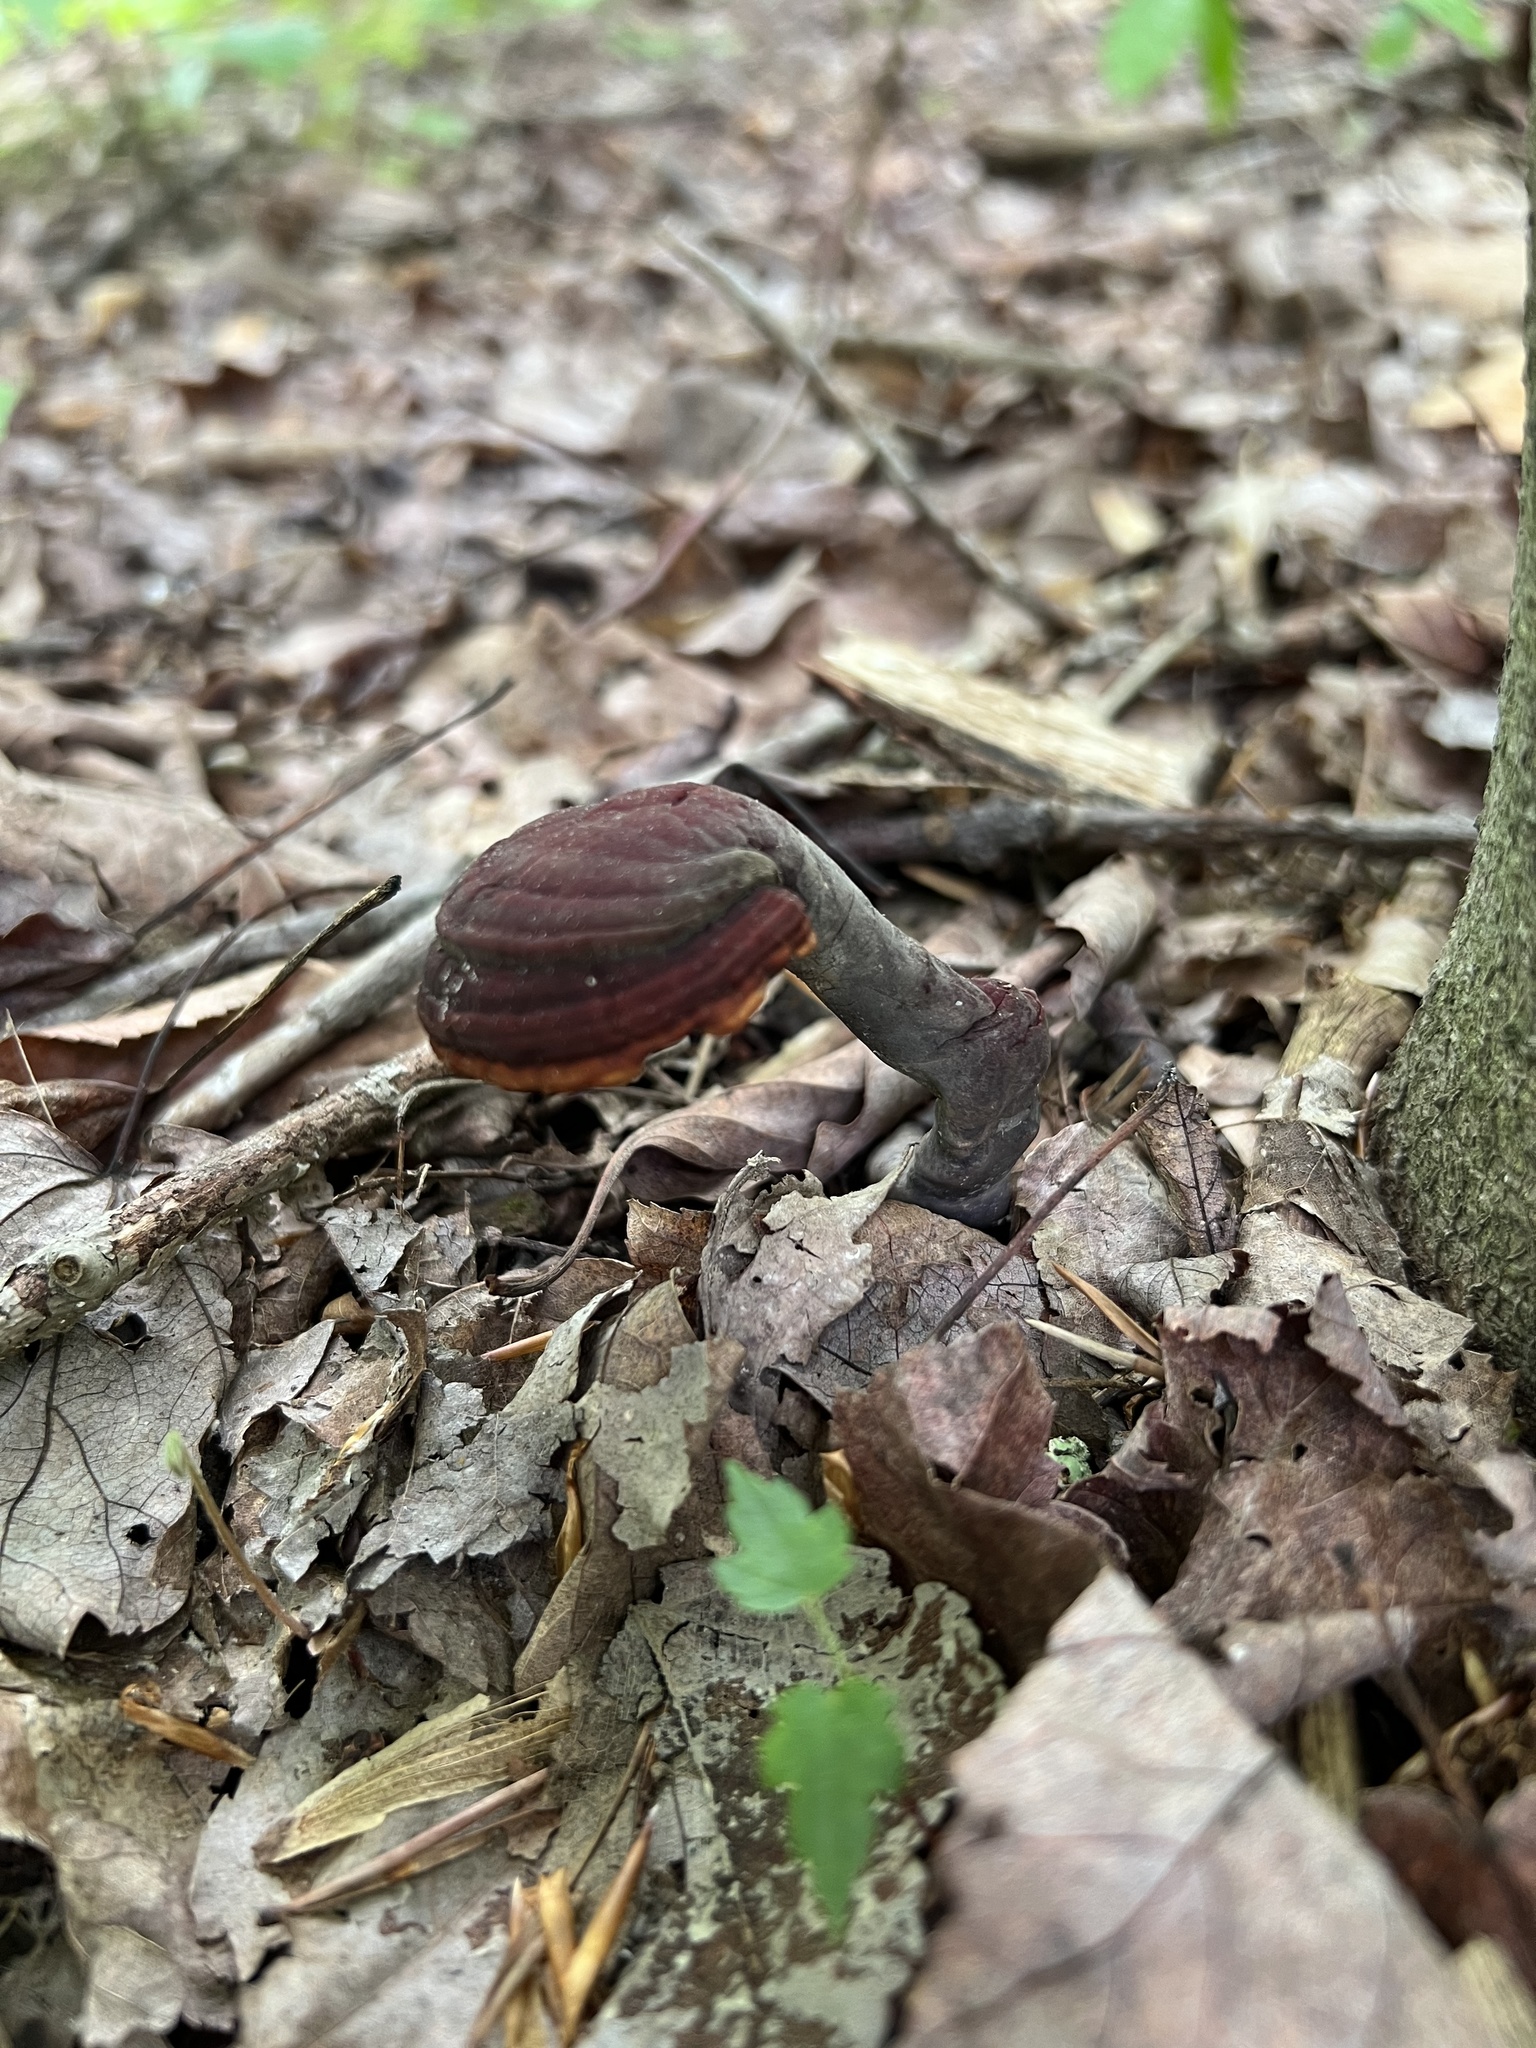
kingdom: Fungi
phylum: Basidiomycota
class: Agaricomycetes
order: Polyporales
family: Polyporaceae
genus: Ganoderma
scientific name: Ganoderma curtisii
